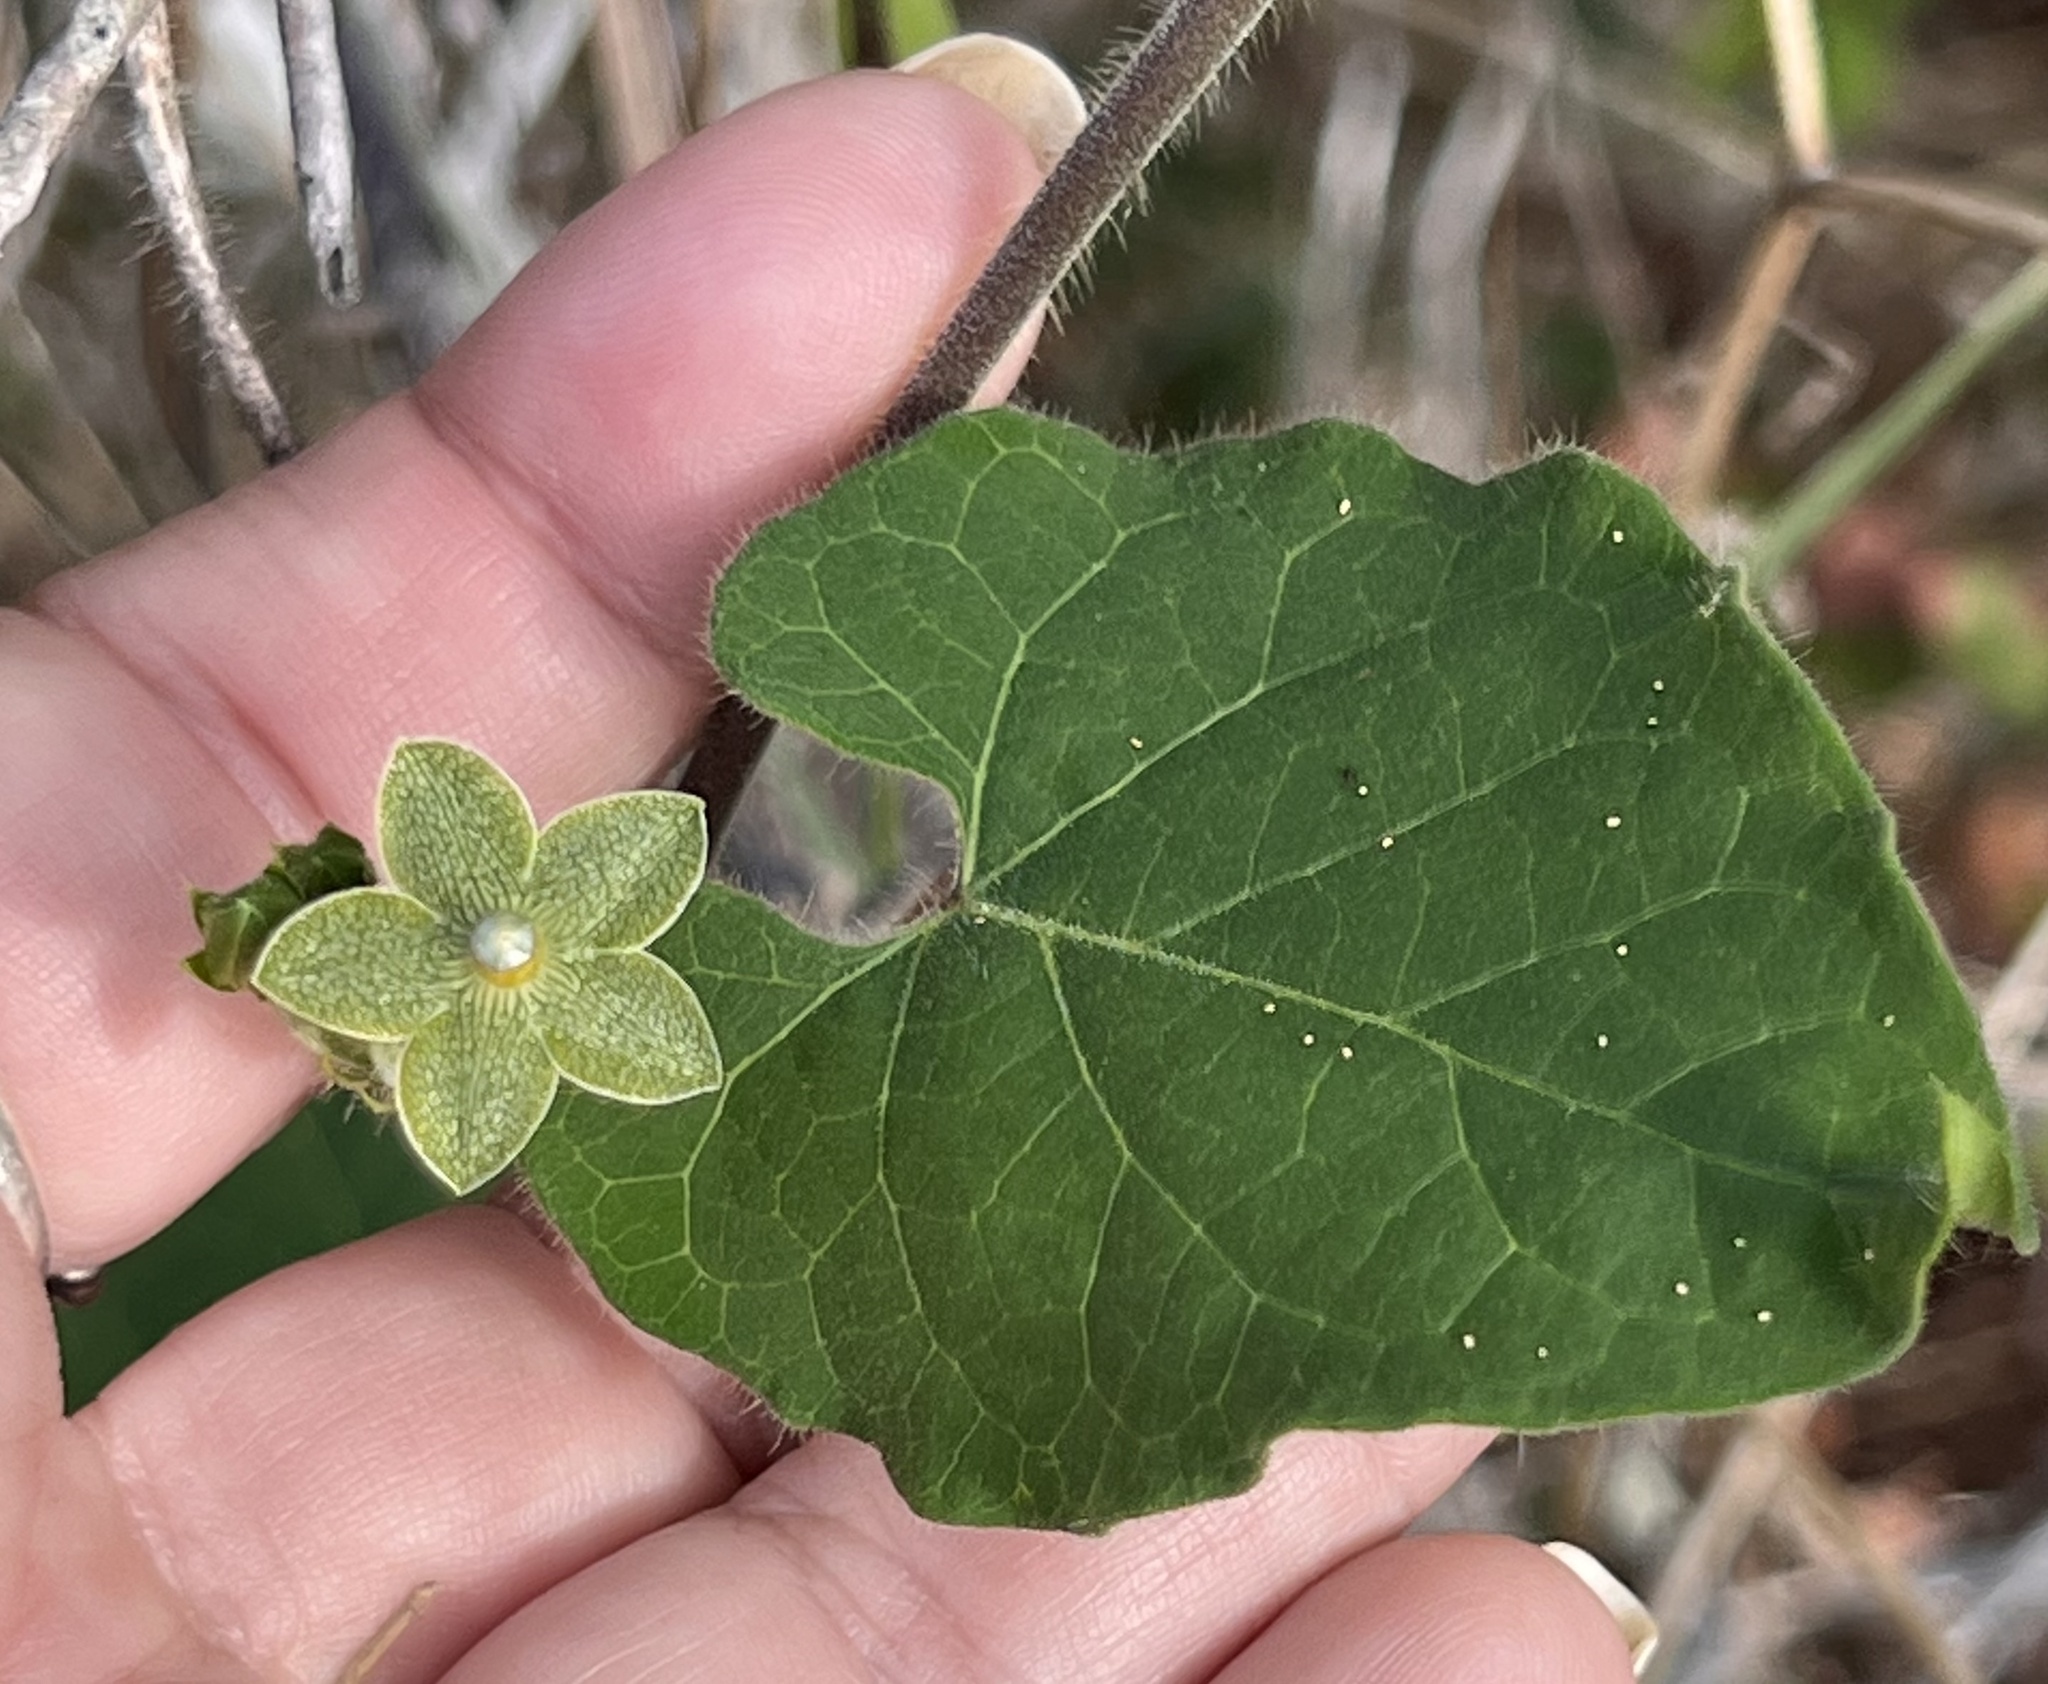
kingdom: Plantae
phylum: Tracheophyta
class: Magnoliopsida
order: Gentianales
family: Apocynaceae
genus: Dictyanthus
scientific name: Dictyanthus reticulatus
